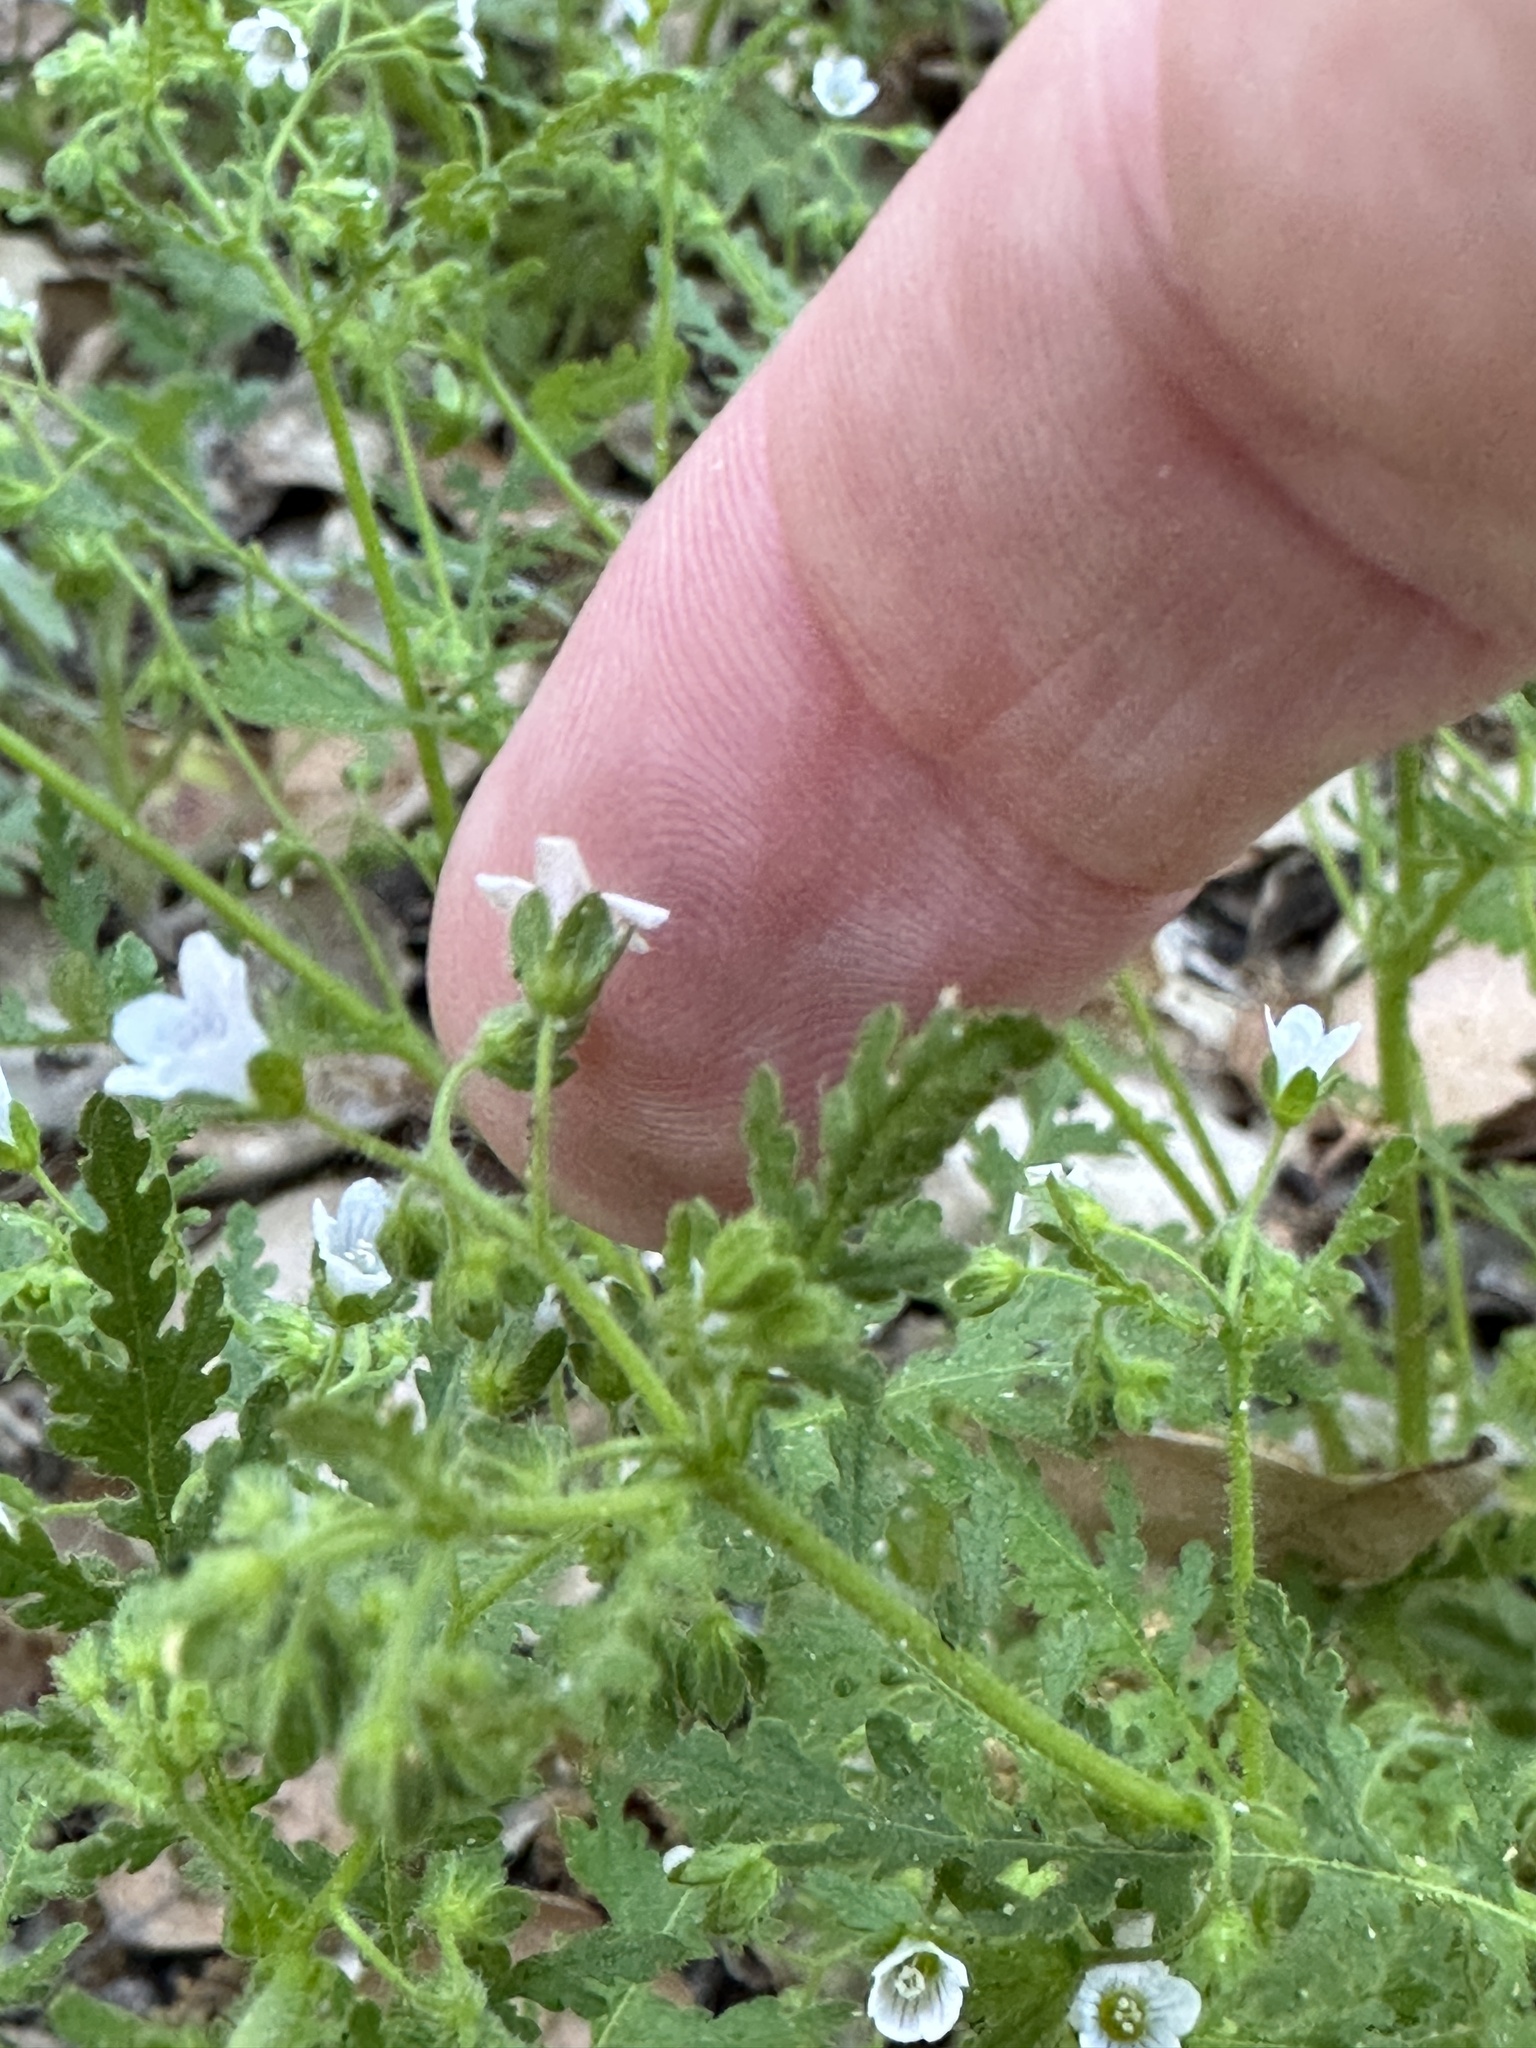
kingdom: Plantae
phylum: Tracheophyta
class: Magnoliopsida
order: Boraginales
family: Hydrophyllaceae
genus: Eucrypta
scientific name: Eucrypta chrysanthemifolia
